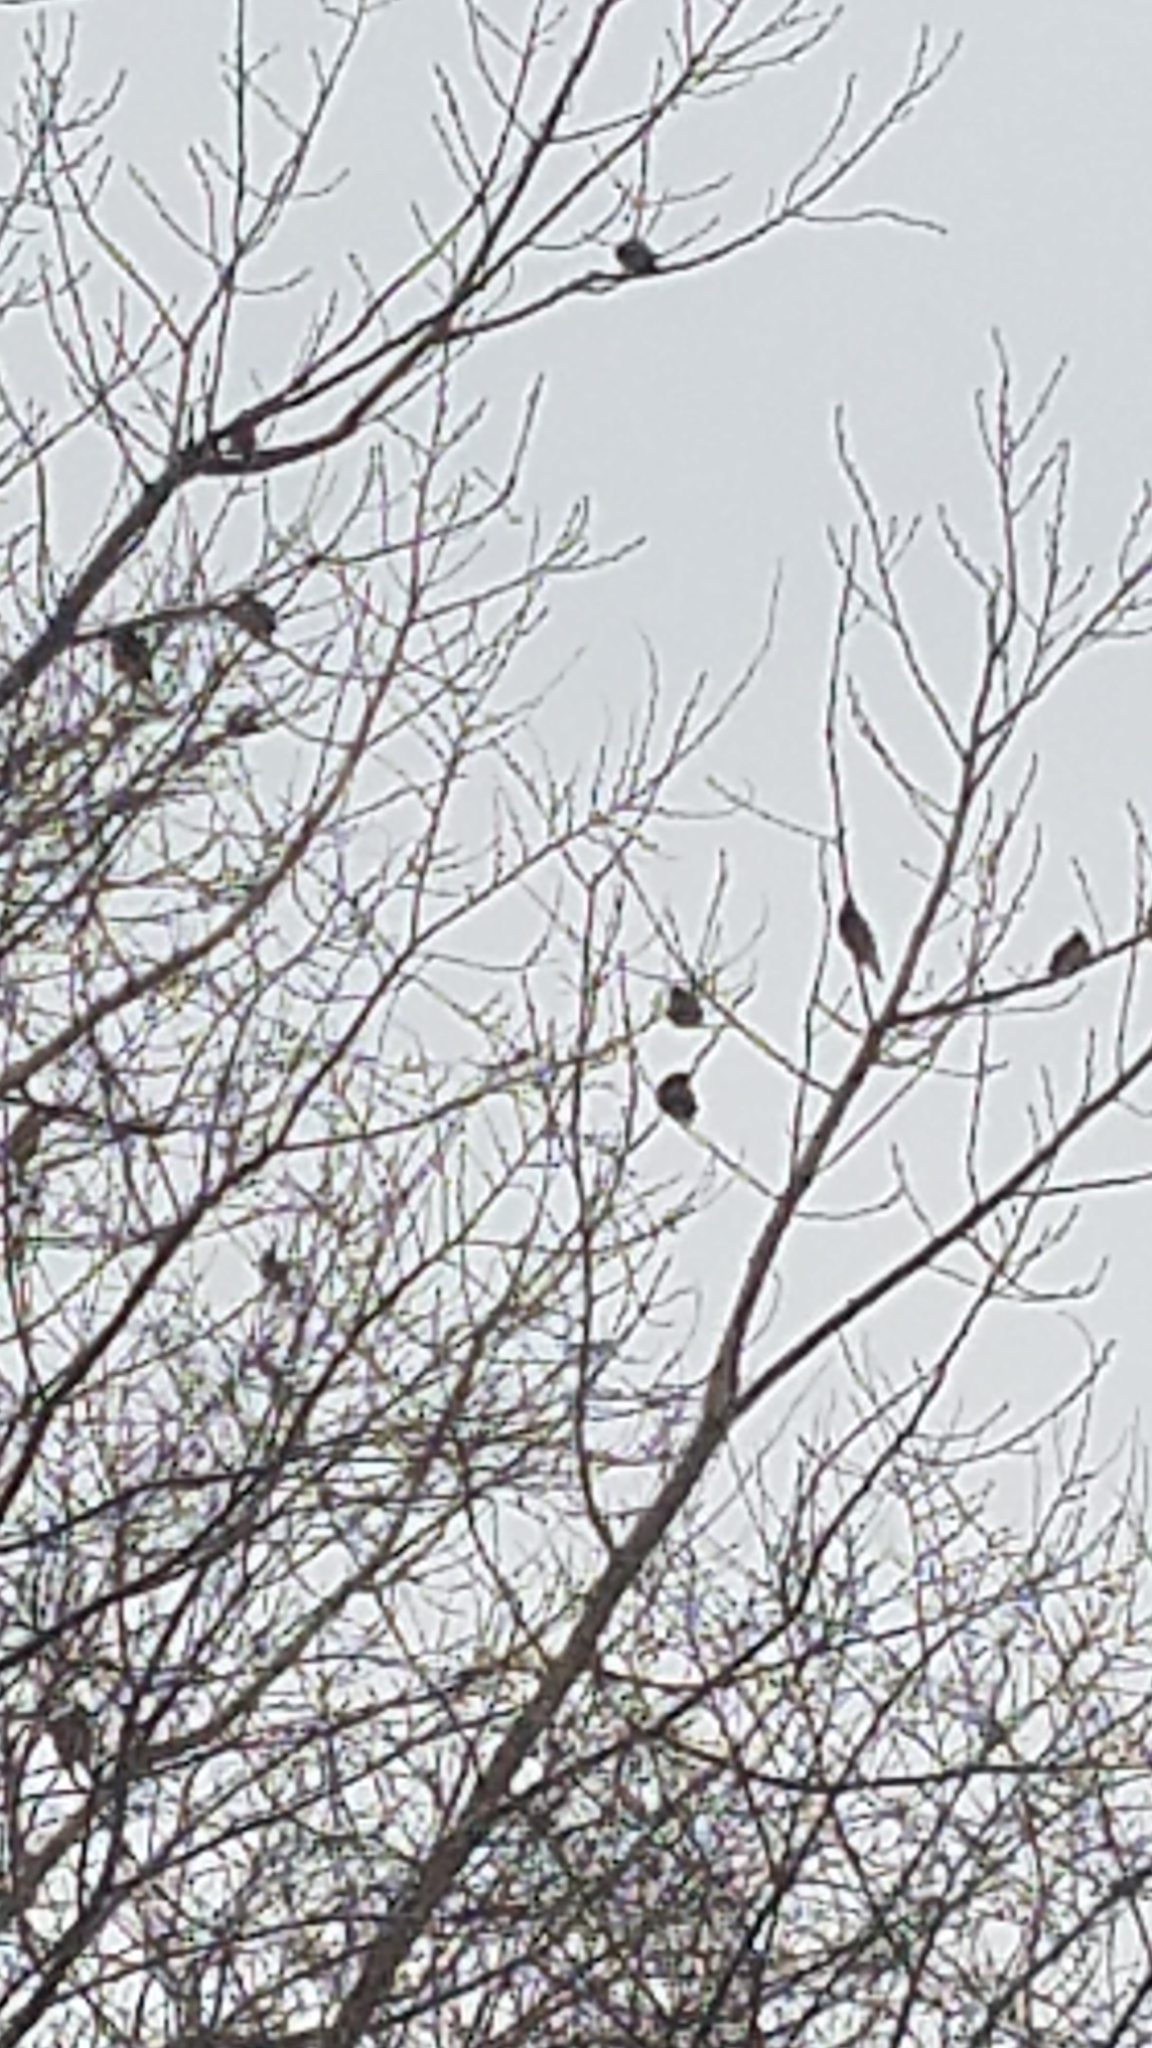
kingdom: Animalia
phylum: Chordata
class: Aves
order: Passeriformes
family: Bombycillidae
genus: Bombycilla
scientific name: Bombycilla cedrorum
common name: Cedar waxwing
